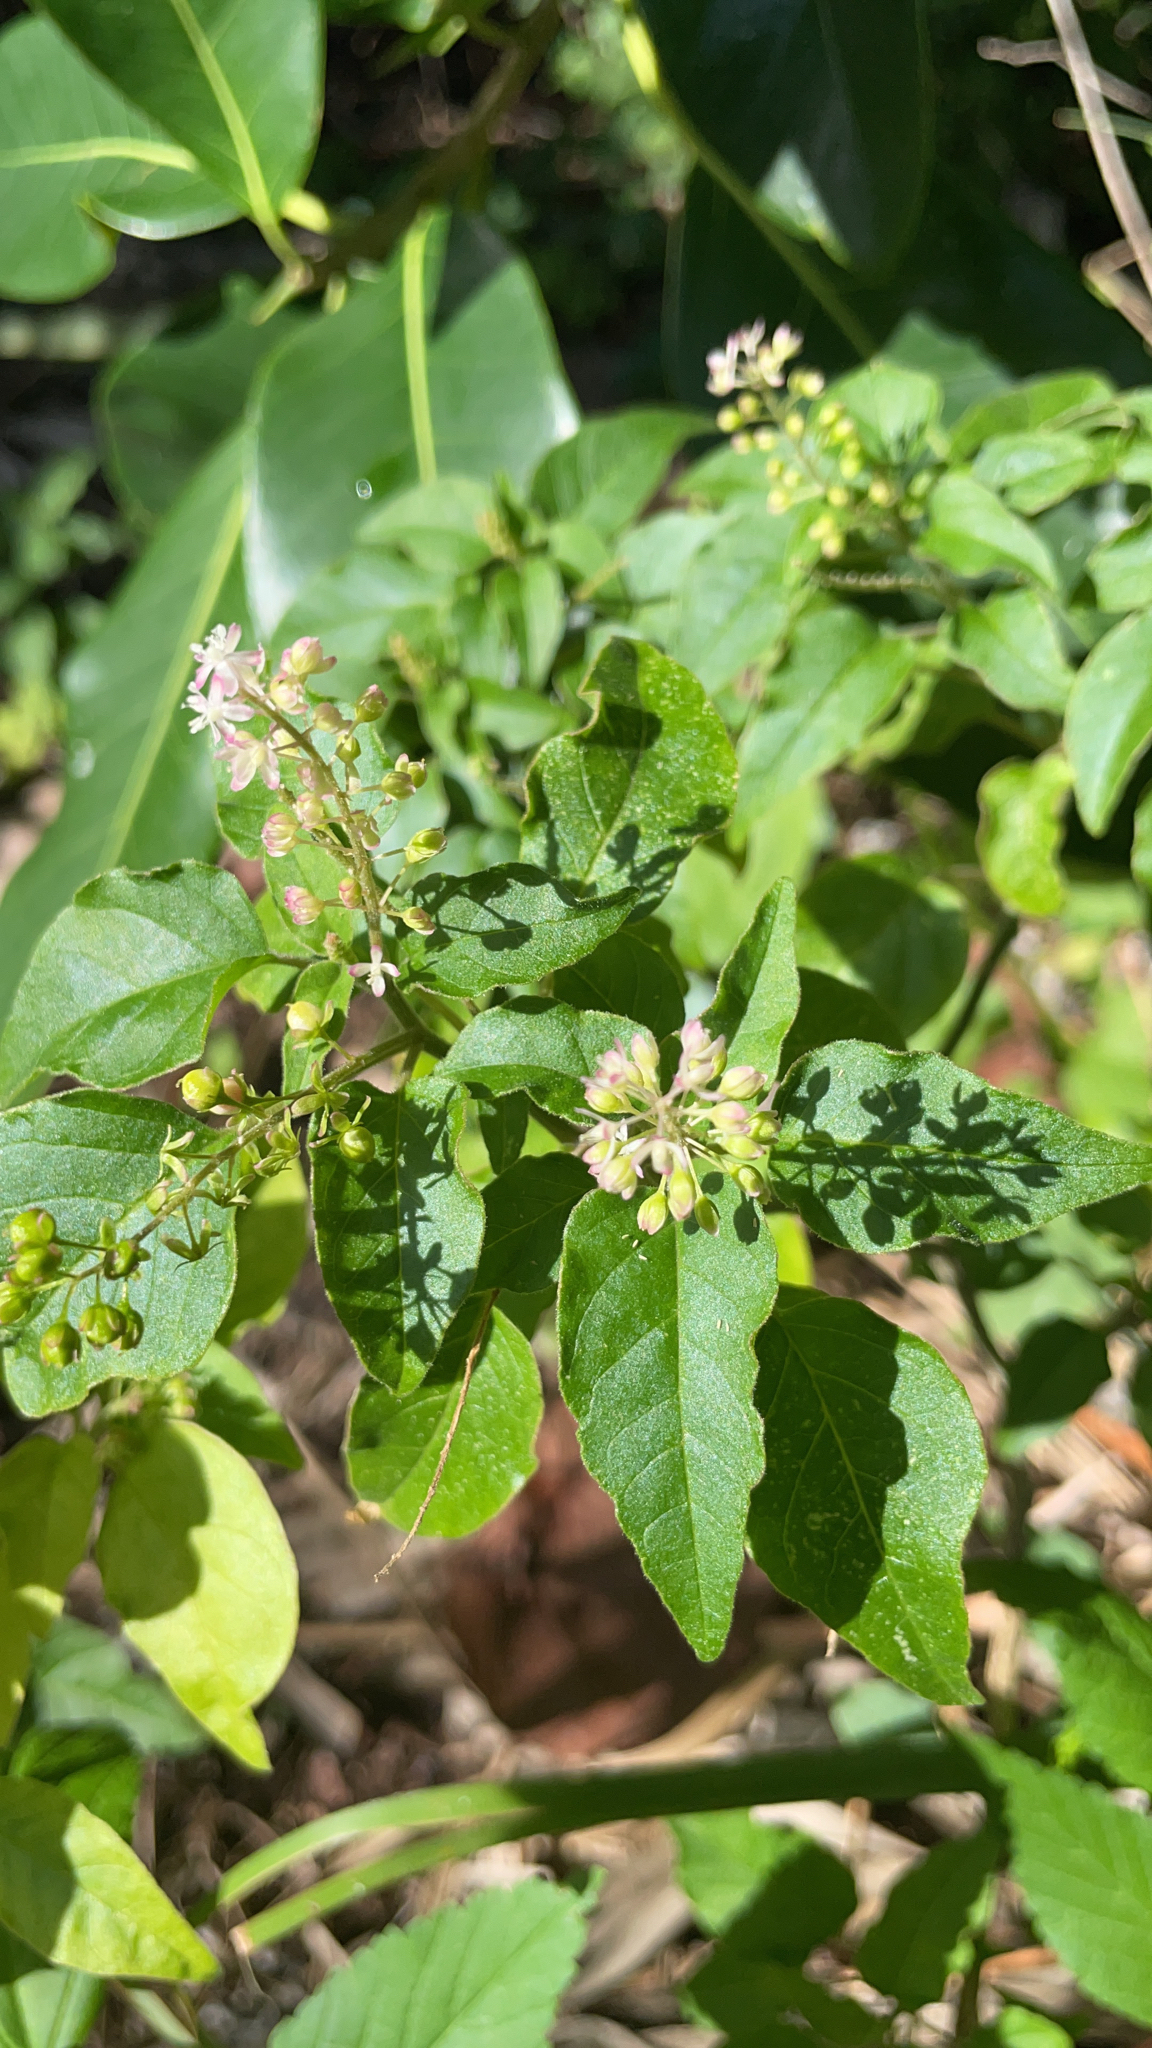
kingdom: Plantae
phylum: Tracheophyta
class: Magnoliopsida
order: Caryophyllales
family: Phytolaccaceae
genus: Rivina
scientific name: Rivina humilis
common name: Rougeplant
